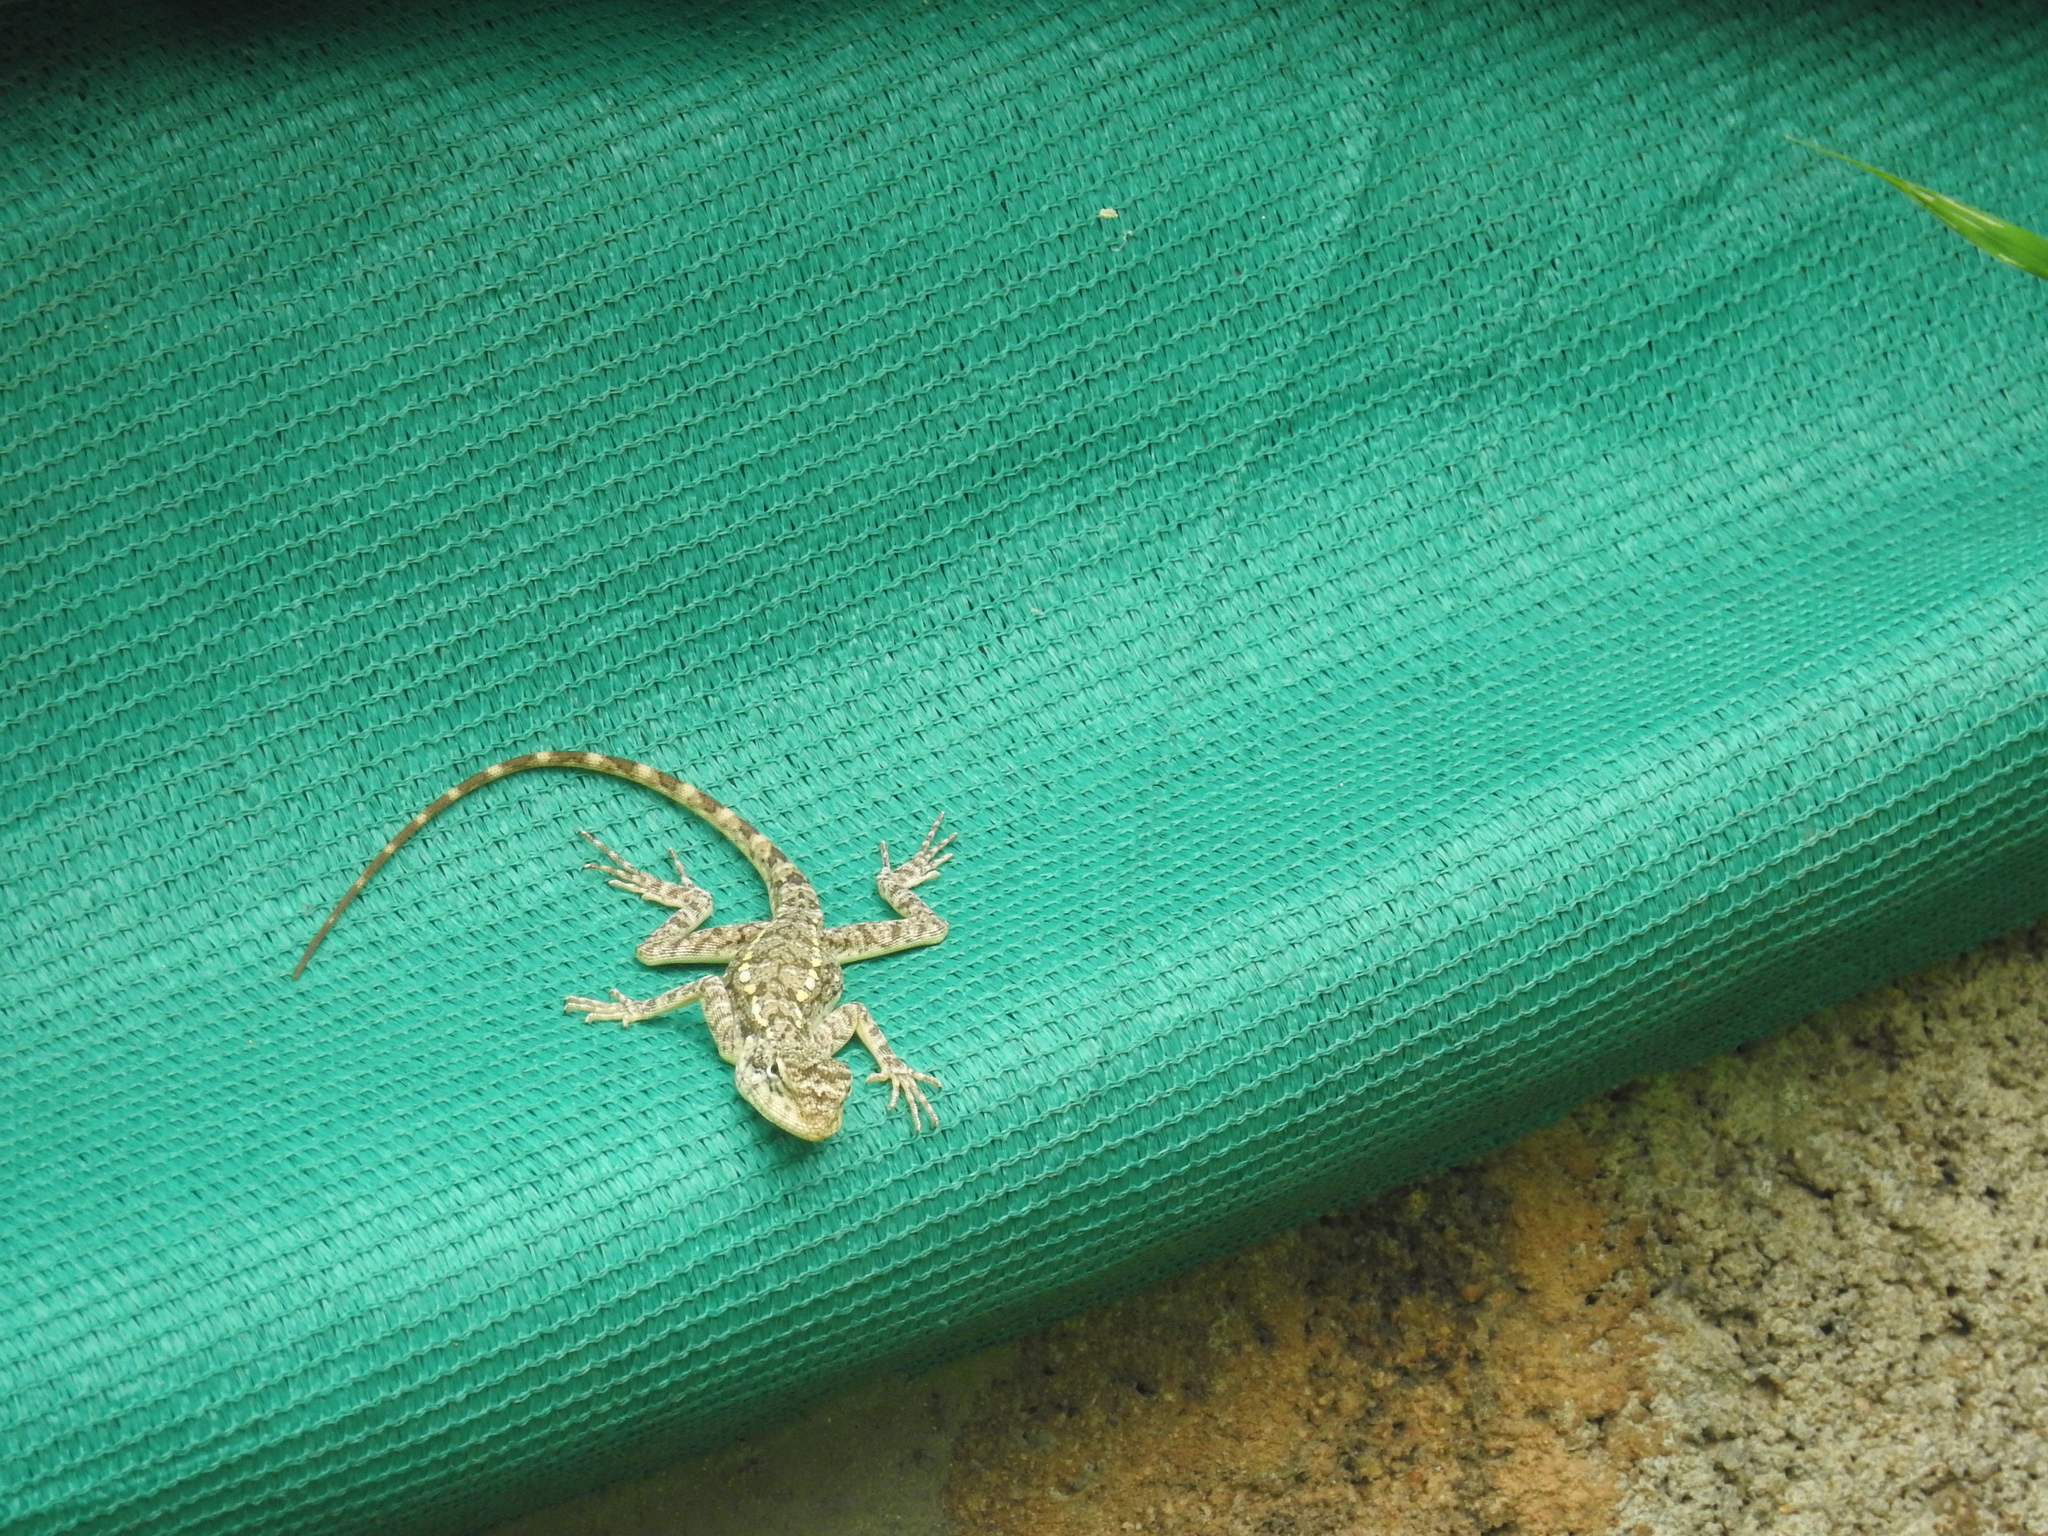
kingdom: Animalia
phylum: Chordata
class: Squamata
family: Agamidae
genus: Psammophilus
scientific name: Psammophilus dorsalis
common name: South indian rock agama
